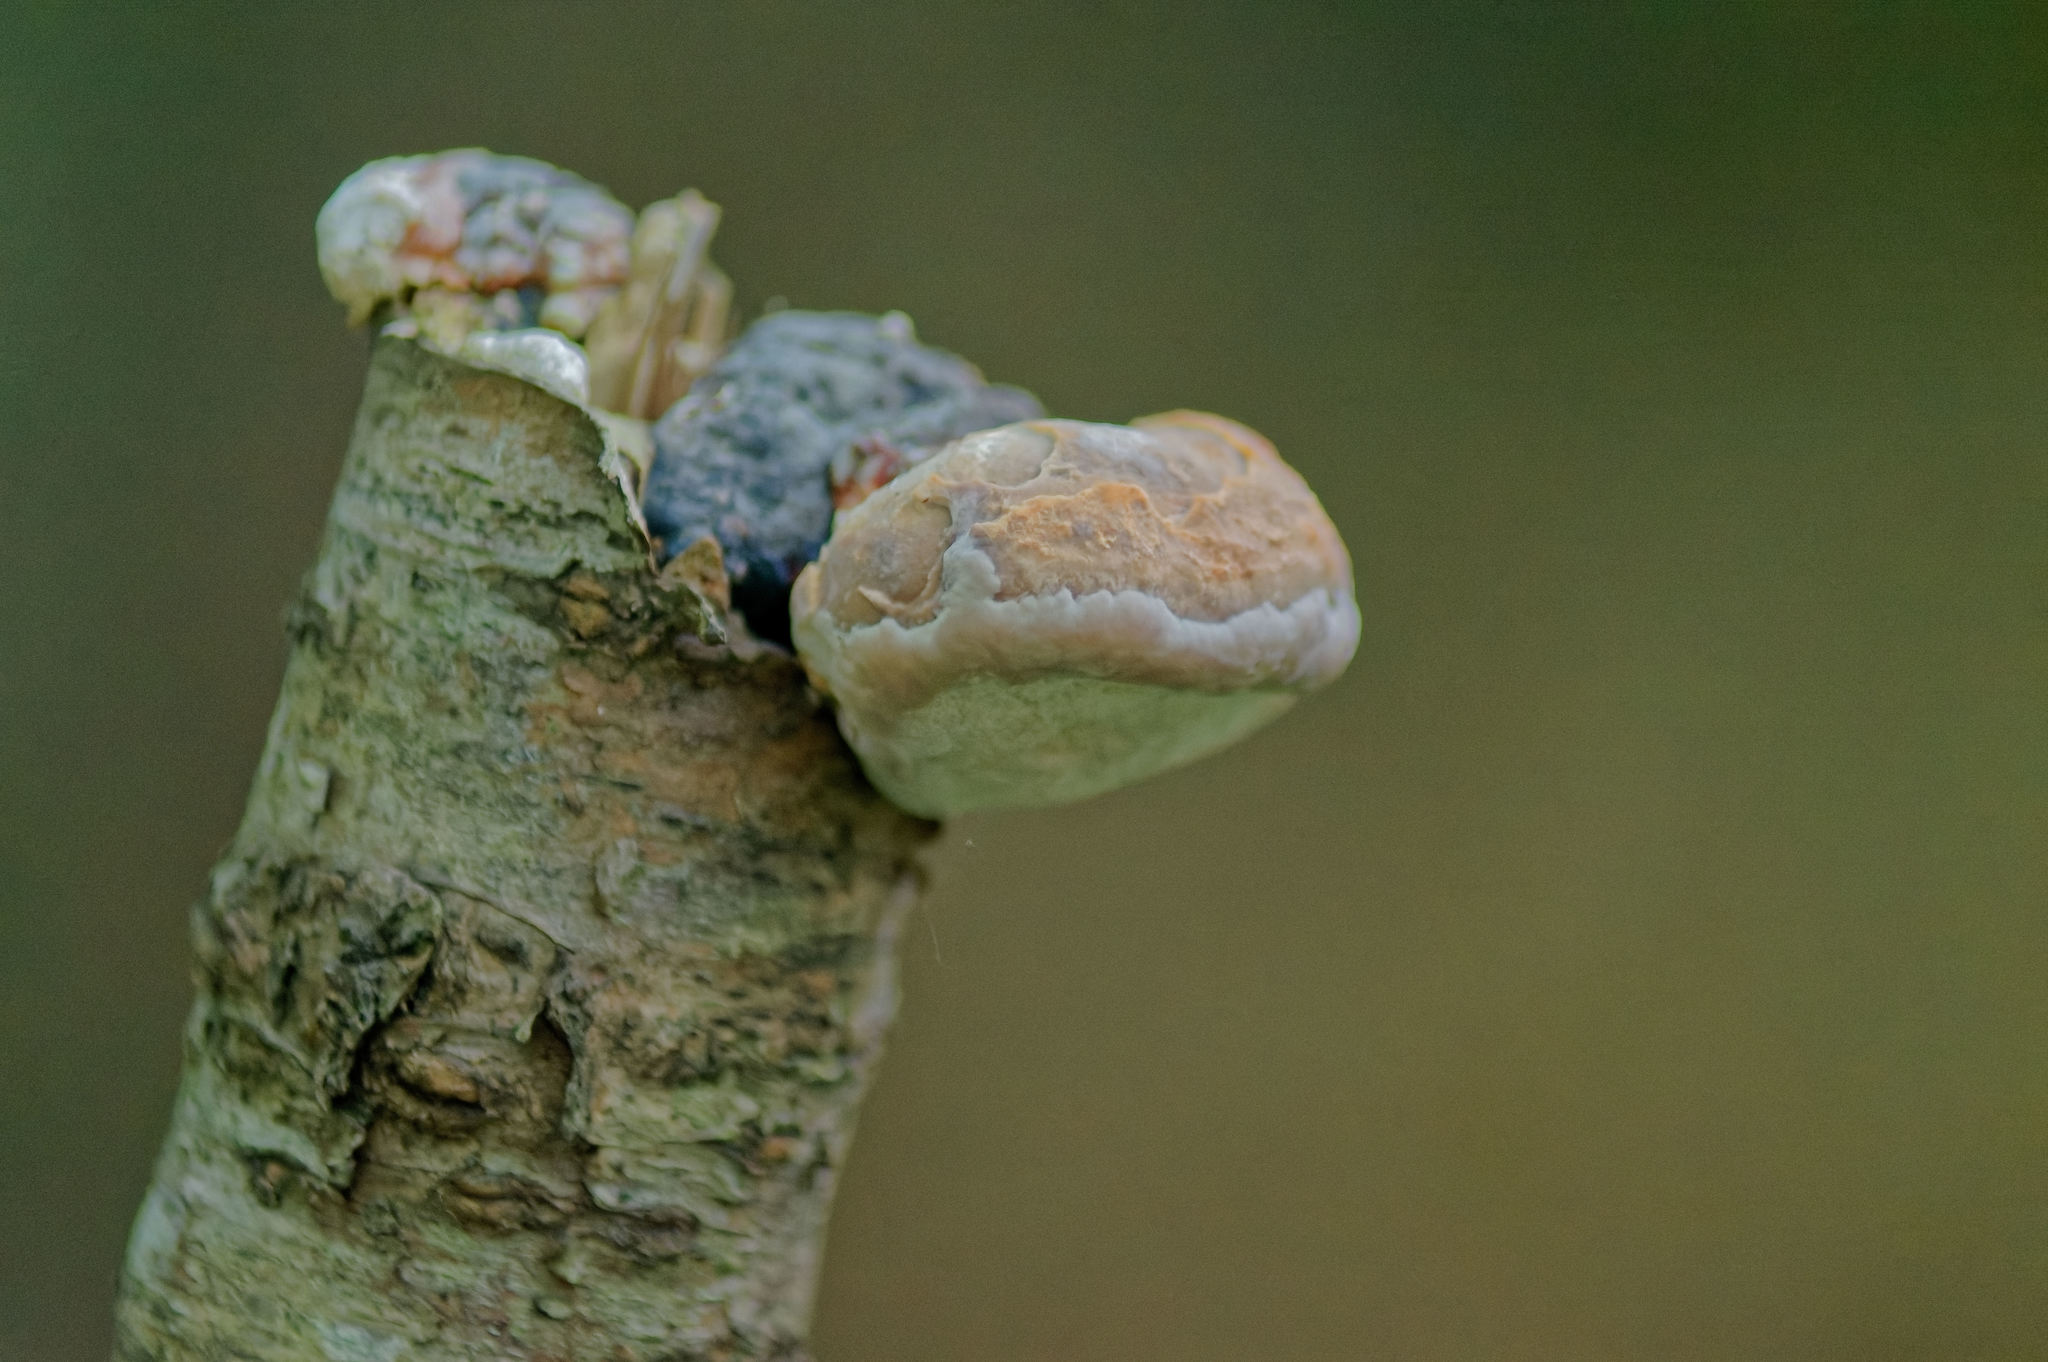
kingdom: Fungi
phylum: Basidiomycota
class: Agaricomycetes
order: Polyporales
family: Fomitopsidaceae
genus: Fomitopsis
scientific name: Fomitopsis pinicola
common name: Red-belted bracket
